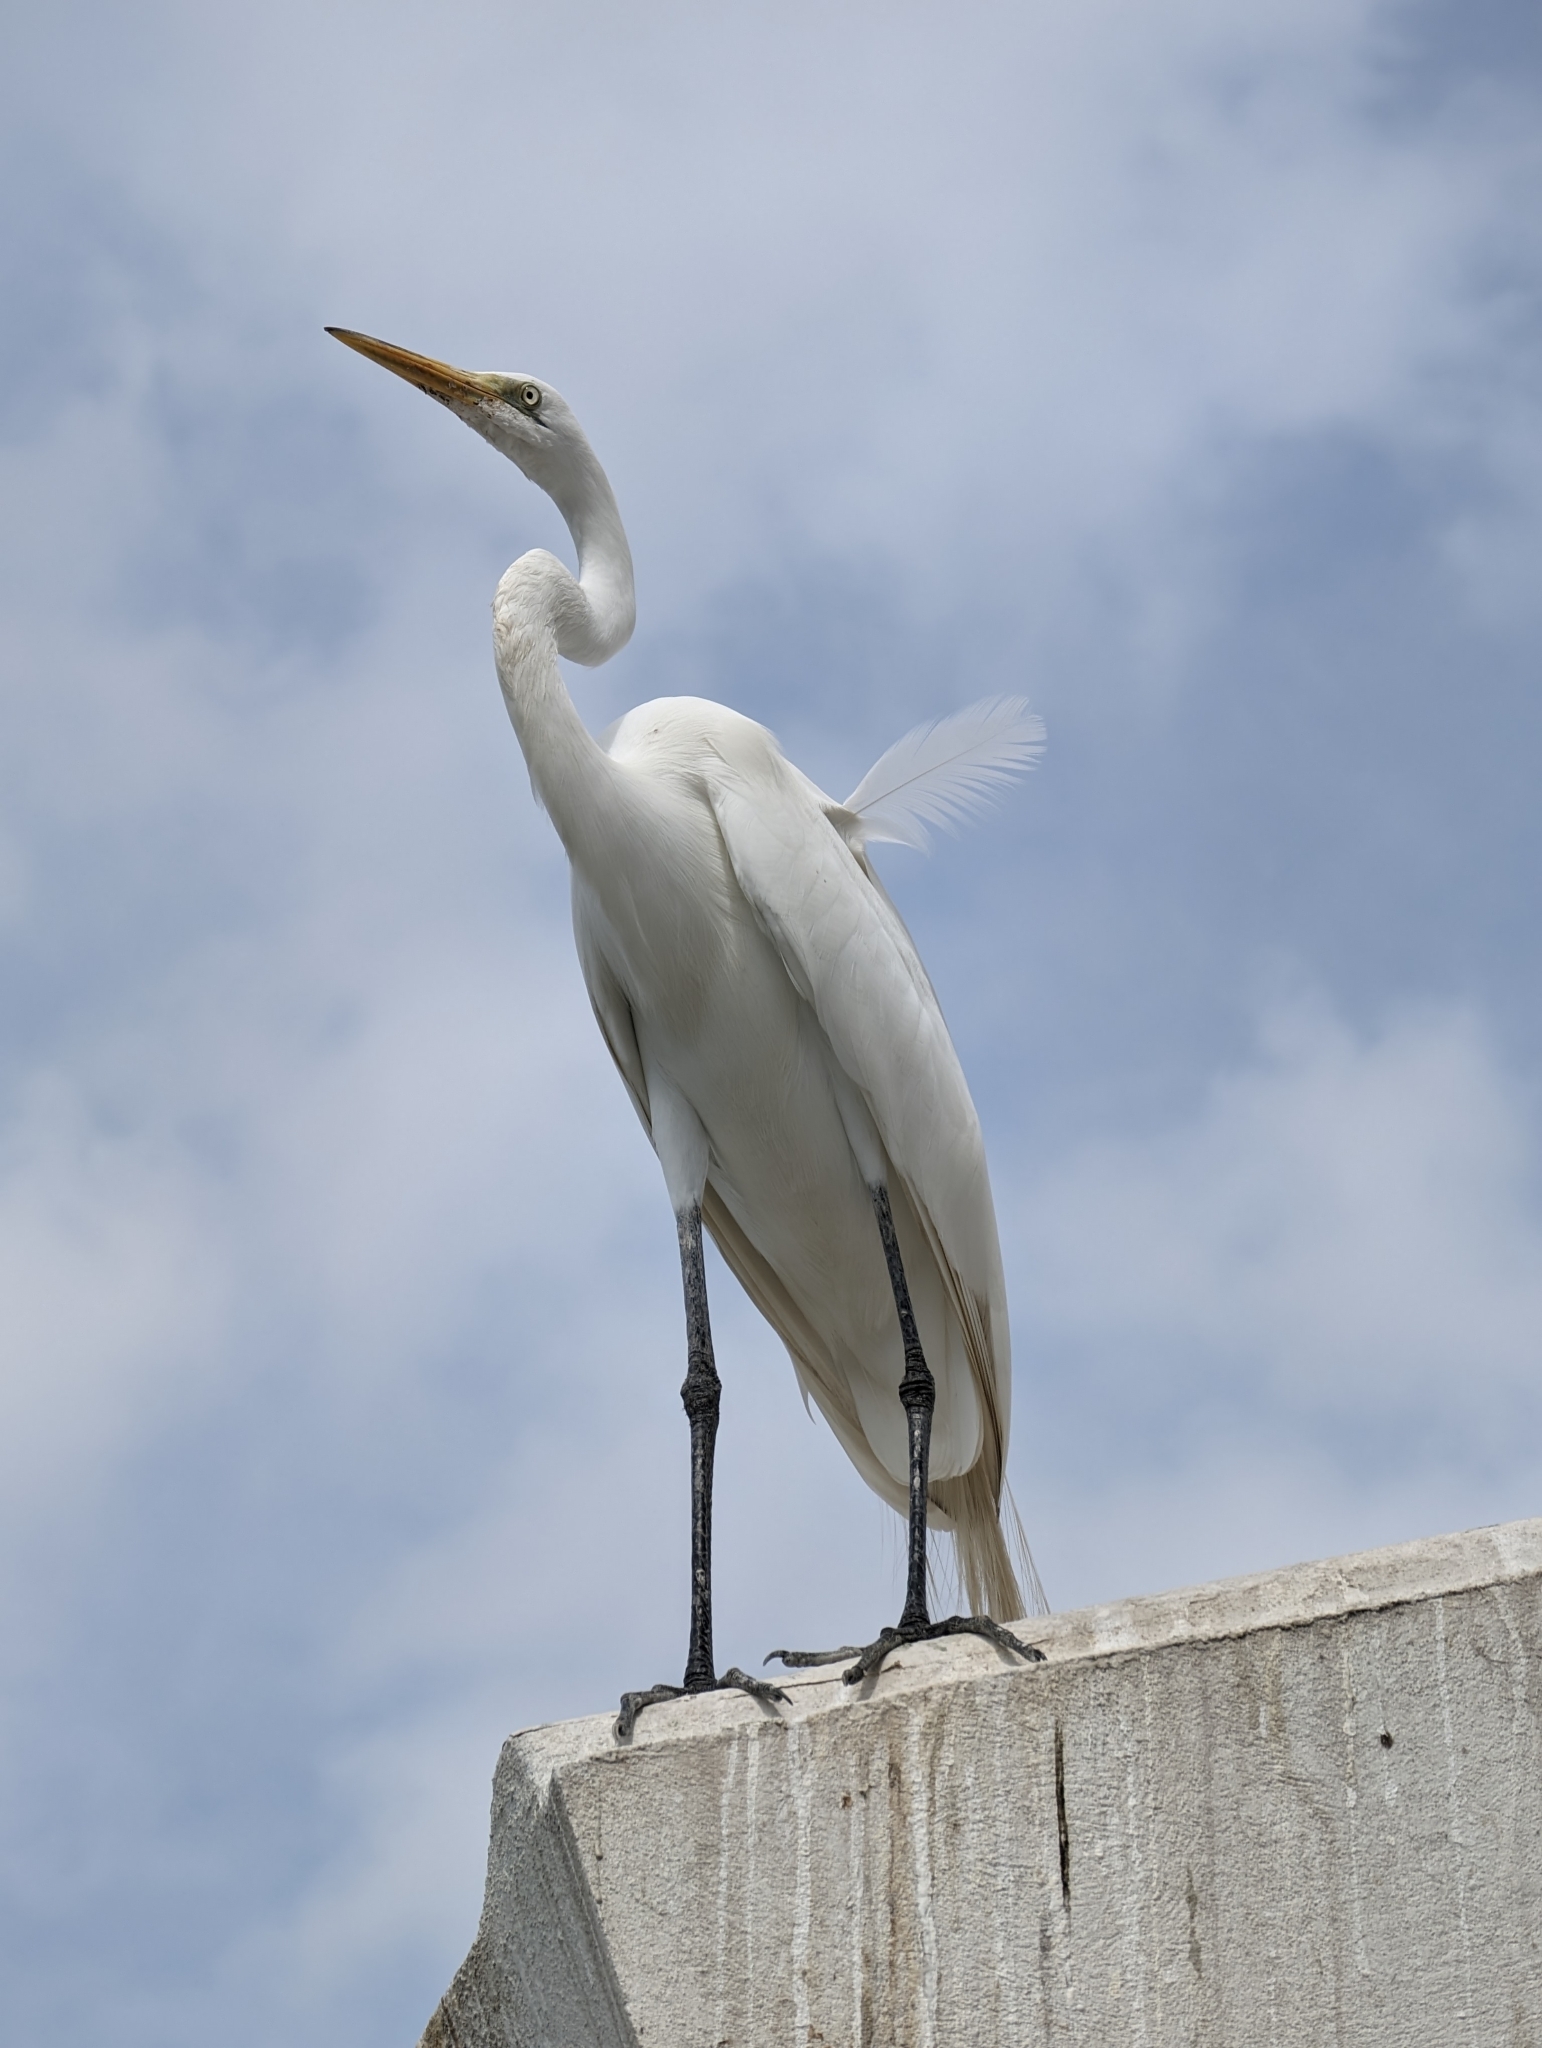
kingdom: Animalia
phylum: Chordata
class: Aves
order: Pelecaniformes
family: Ardeidae
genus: Ardea
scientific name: Ardea alba
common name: Great egret
